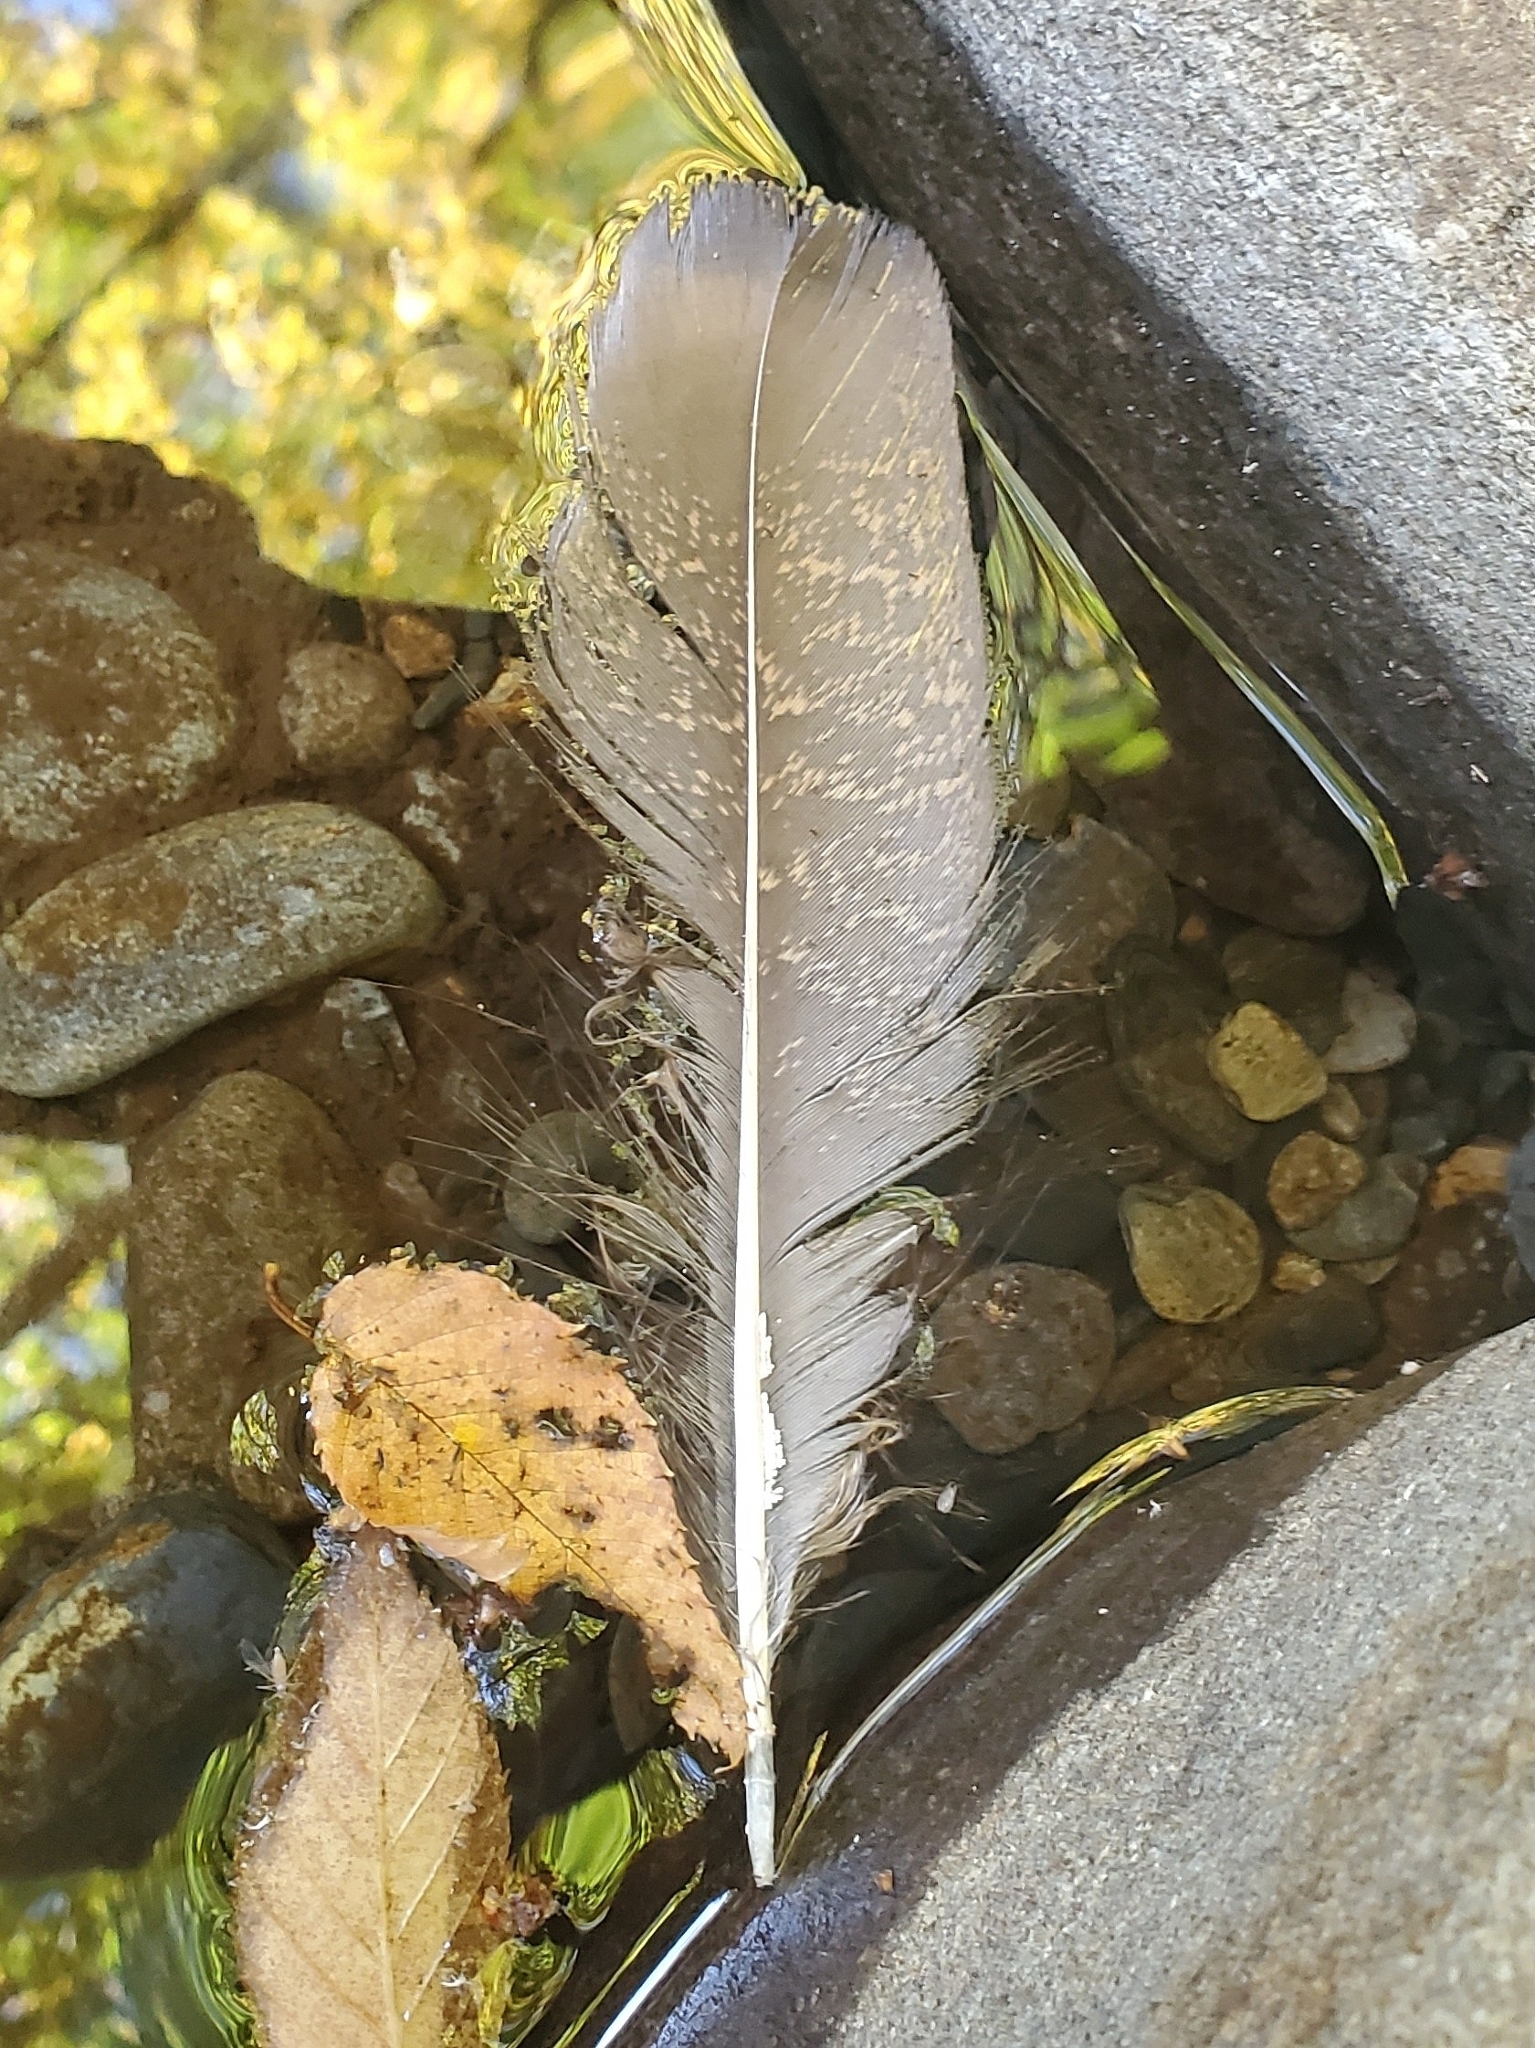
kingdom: Animalia
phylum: Chordata
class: Aves
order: Galliformes
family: Phasianidae
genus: Meleagris
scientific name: Meleagris gallopavo
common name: Wild turkey
